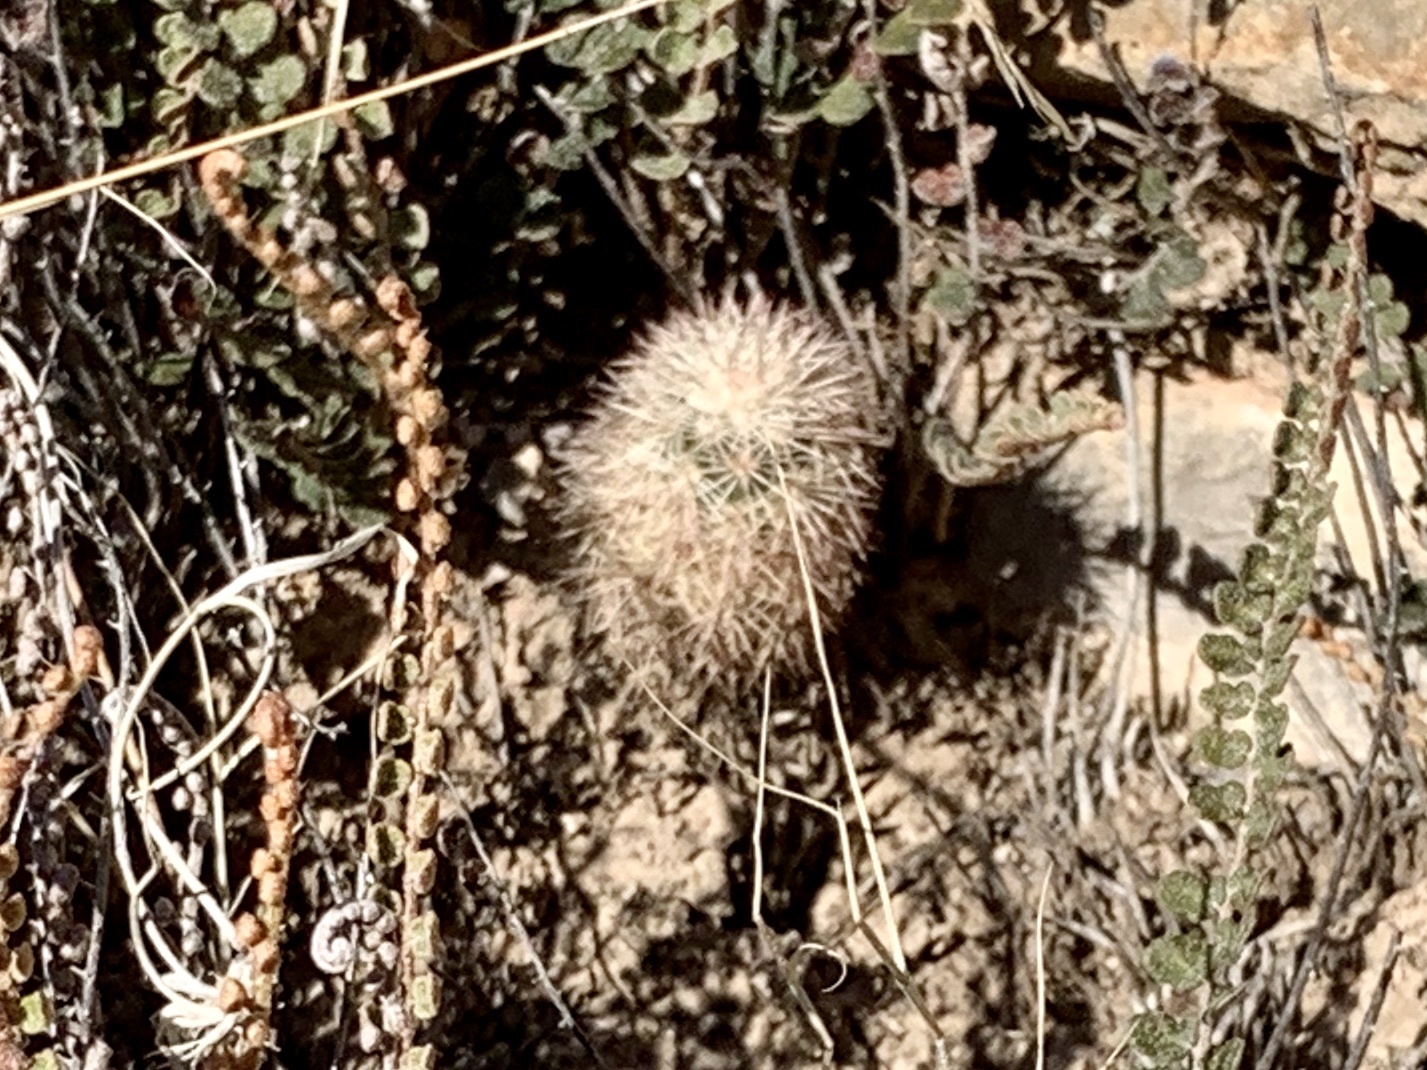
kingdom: Plantae
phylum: Tracheophyta
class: Magnoliopsida
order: Caryophyllales
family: Cactaceae
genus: Echinocereus
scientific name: Echinocereus dasyacanthus
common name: Spiny hedgehog cactus
